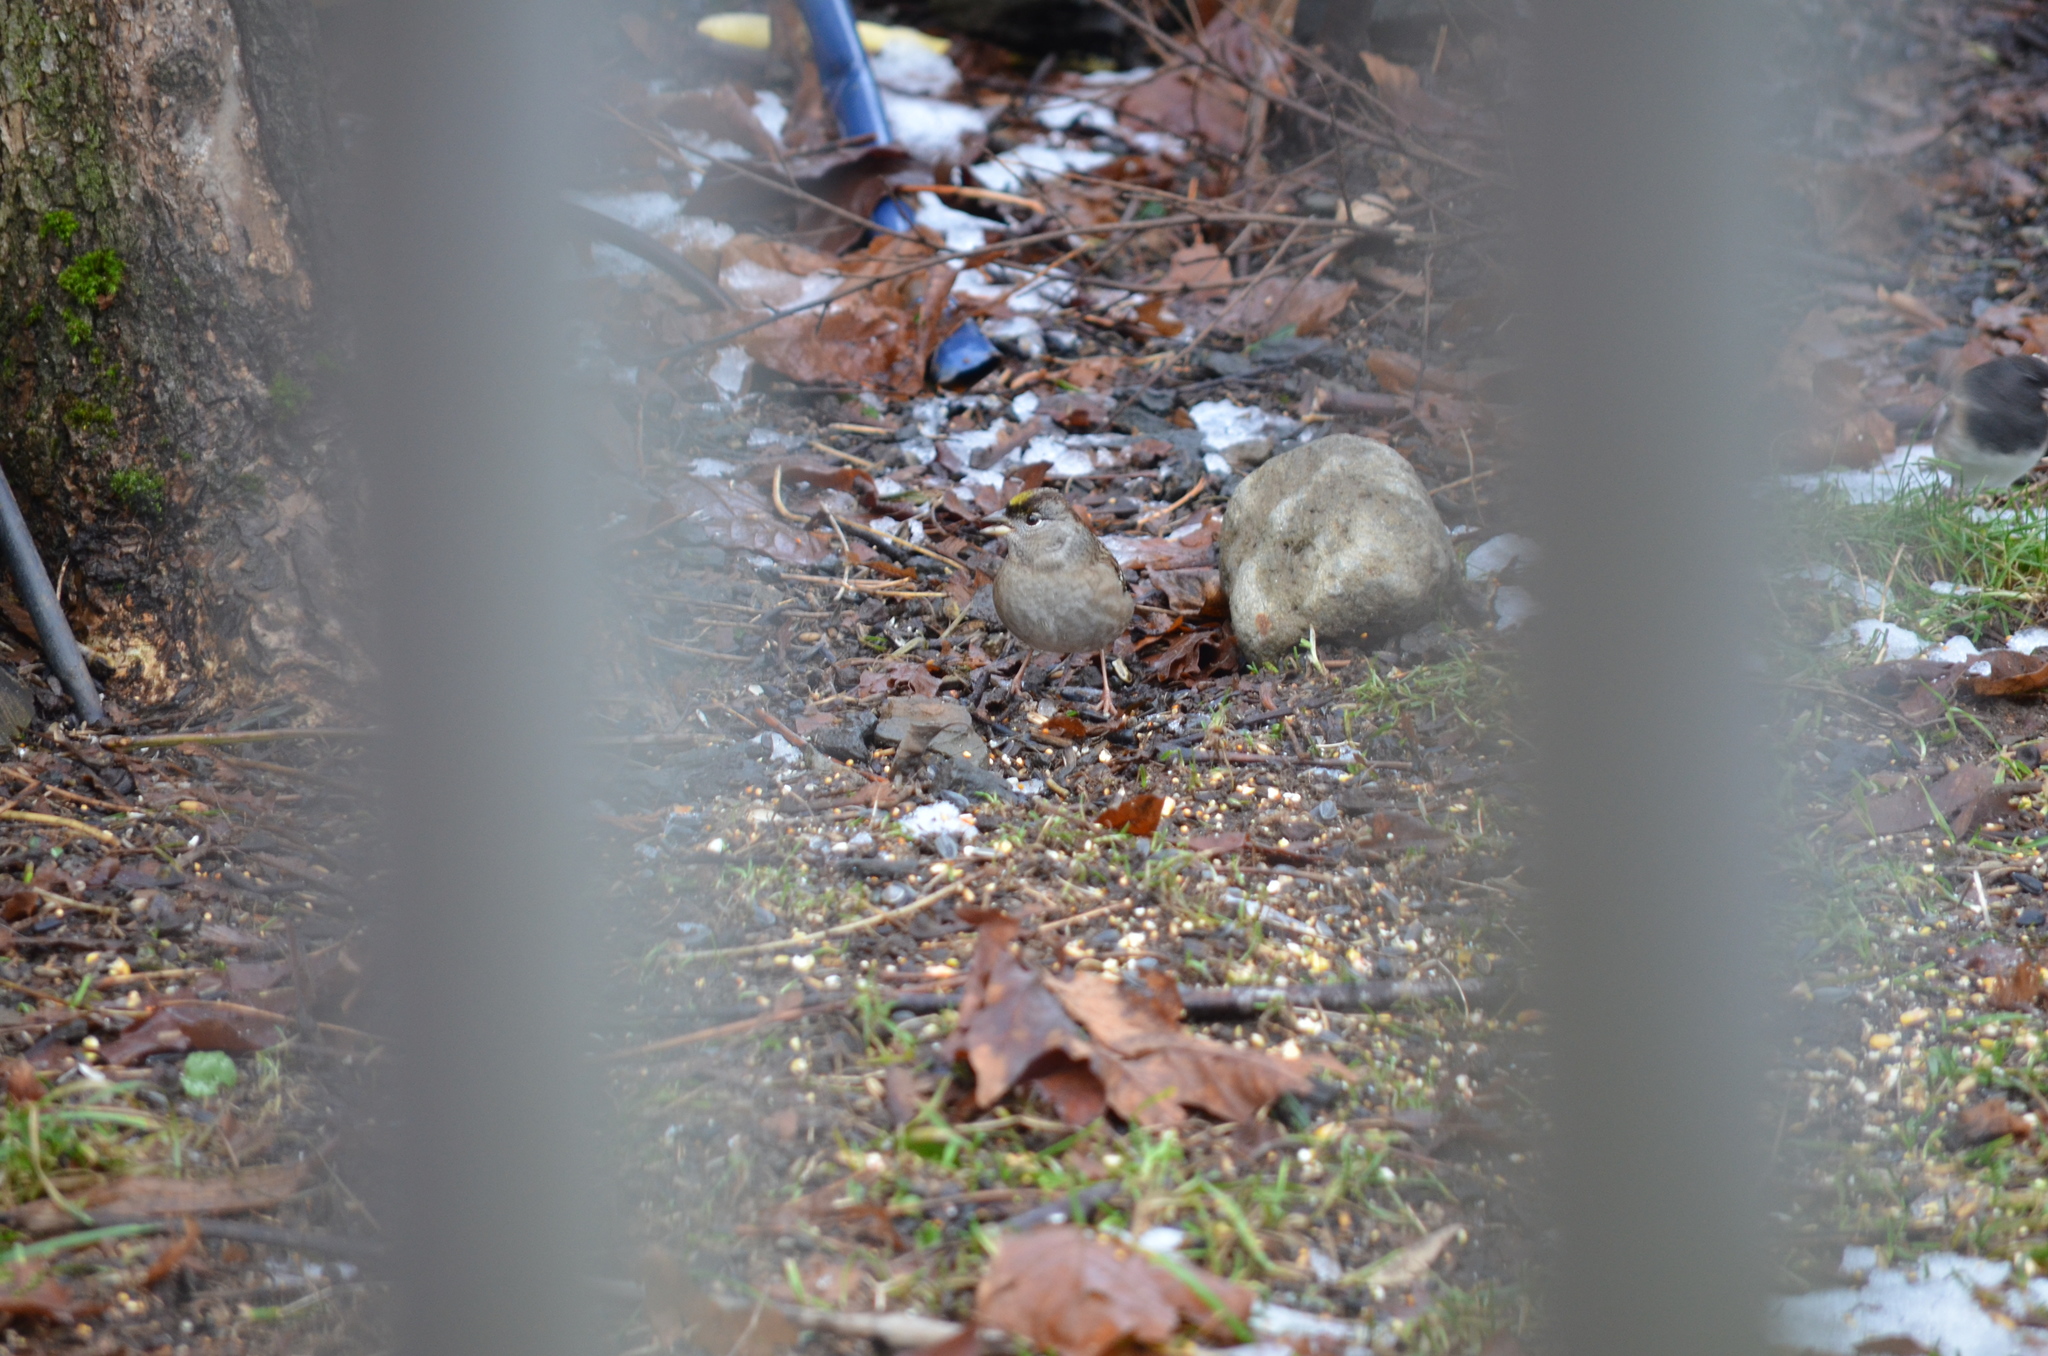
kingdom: Animalia
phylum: Chordata
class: Aves
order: Passeriformes
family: Passerellidae
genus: Zonotrichia
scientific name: Zonotrichia atricapilla
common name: Golden-crowned sparrow
